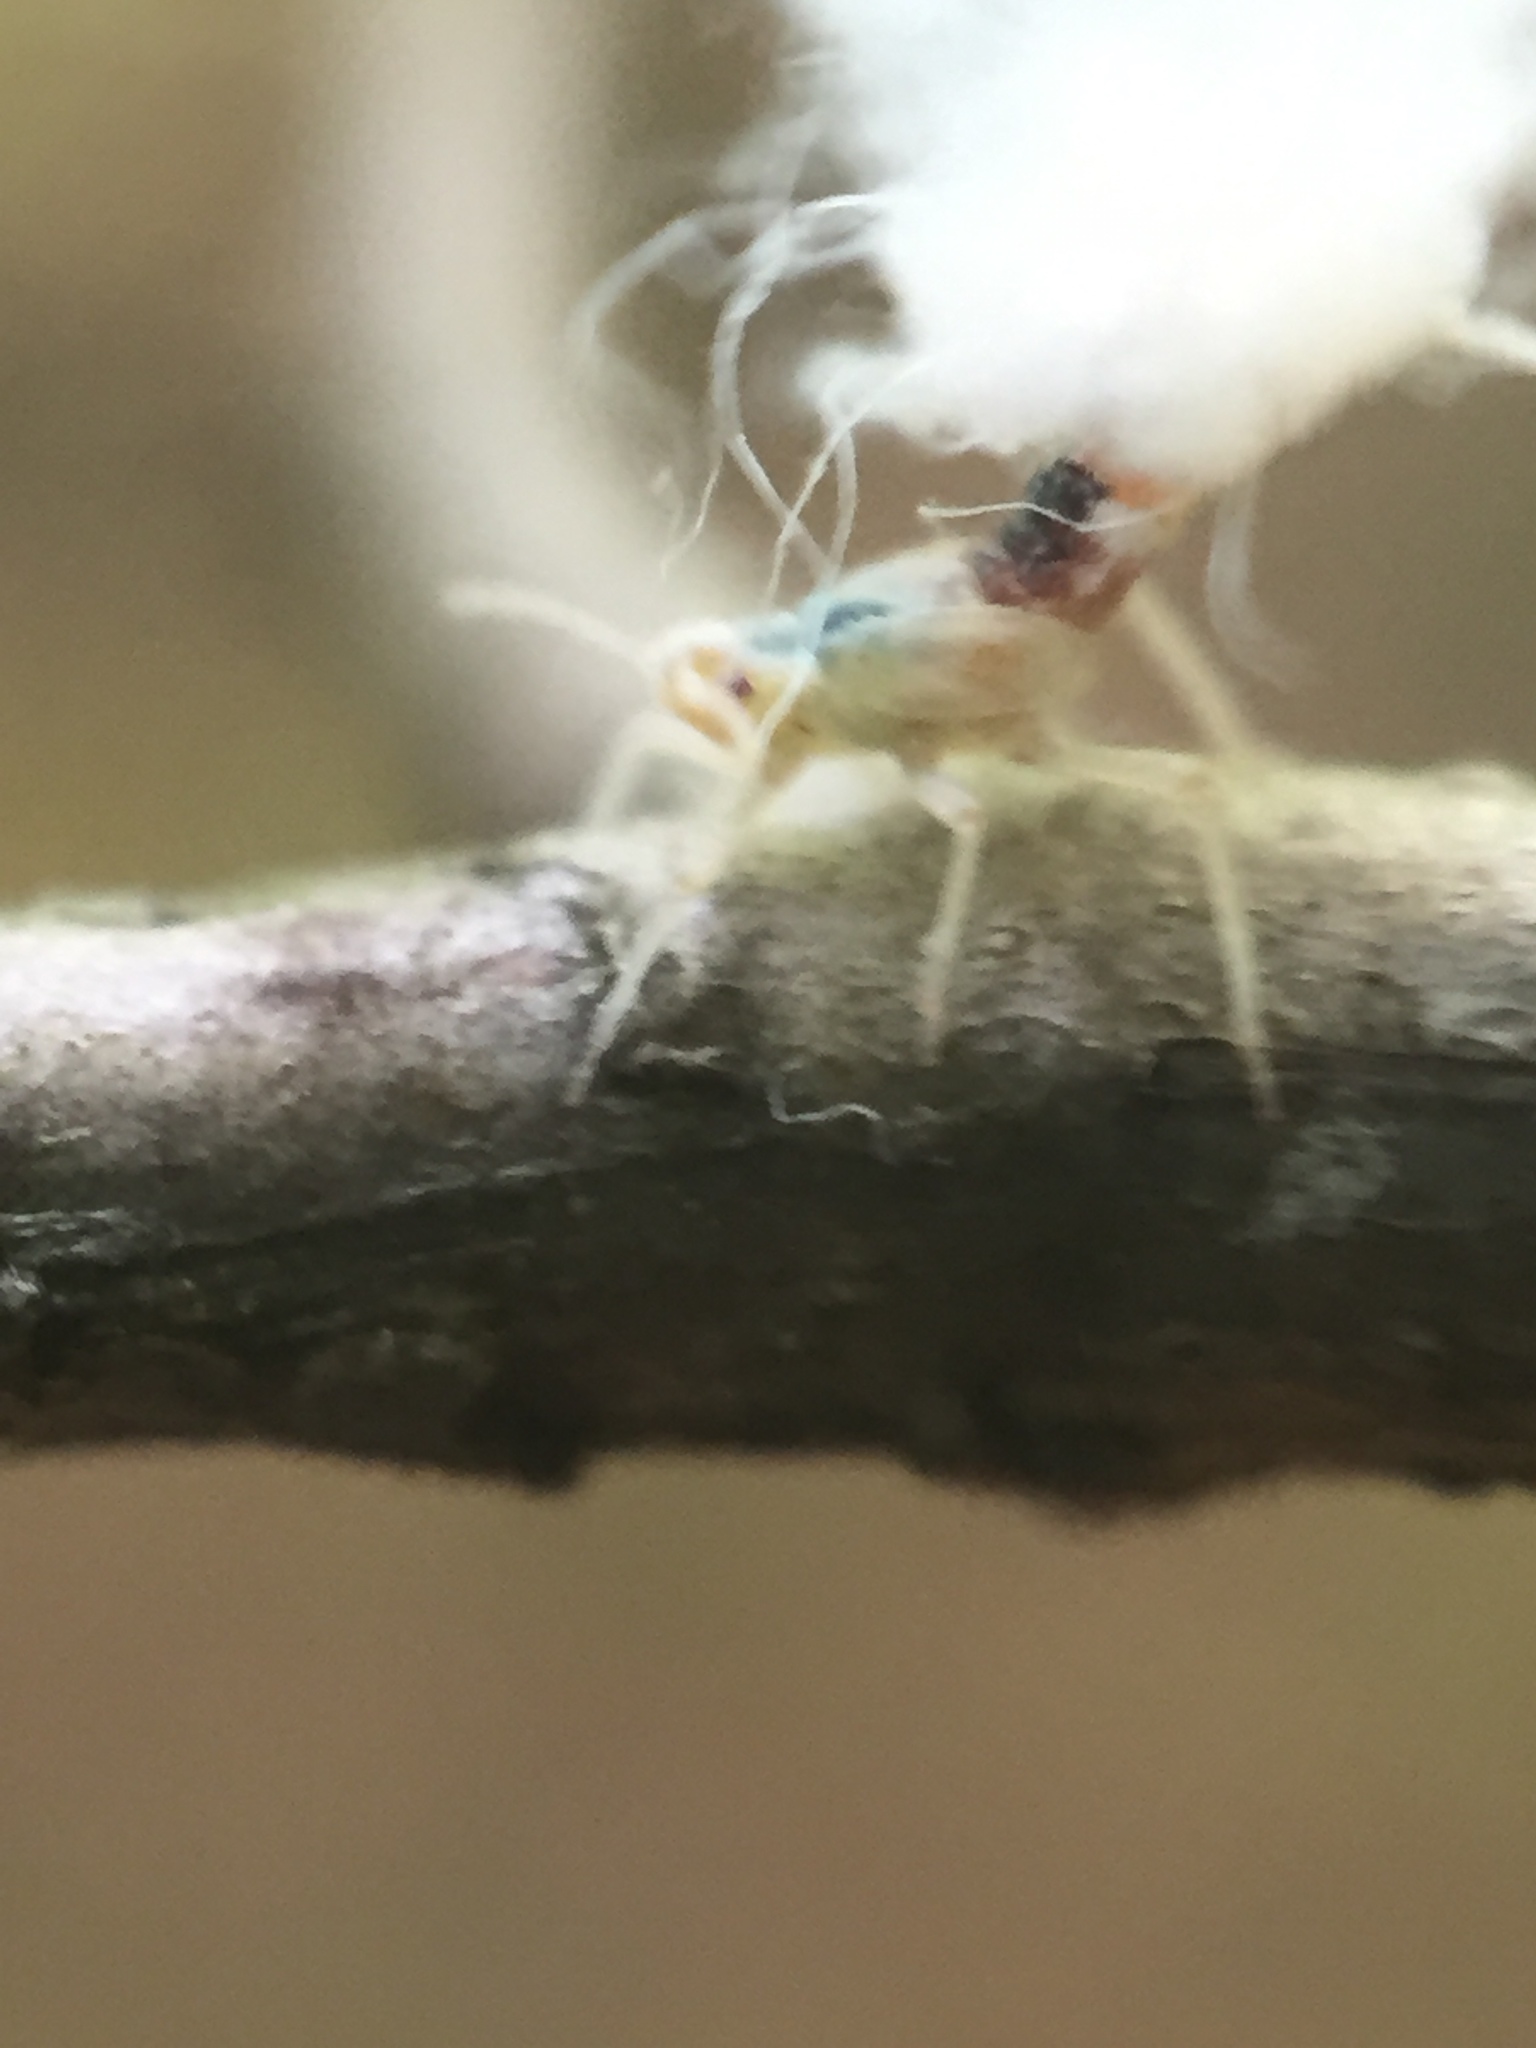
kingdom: Animalia
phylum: Arthropoda
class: Insecta
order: Hemiptera
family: Aphididae
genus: Grylloprociphilus
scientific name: Grylloprociphilus imbricator
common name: Beech blight aphid
